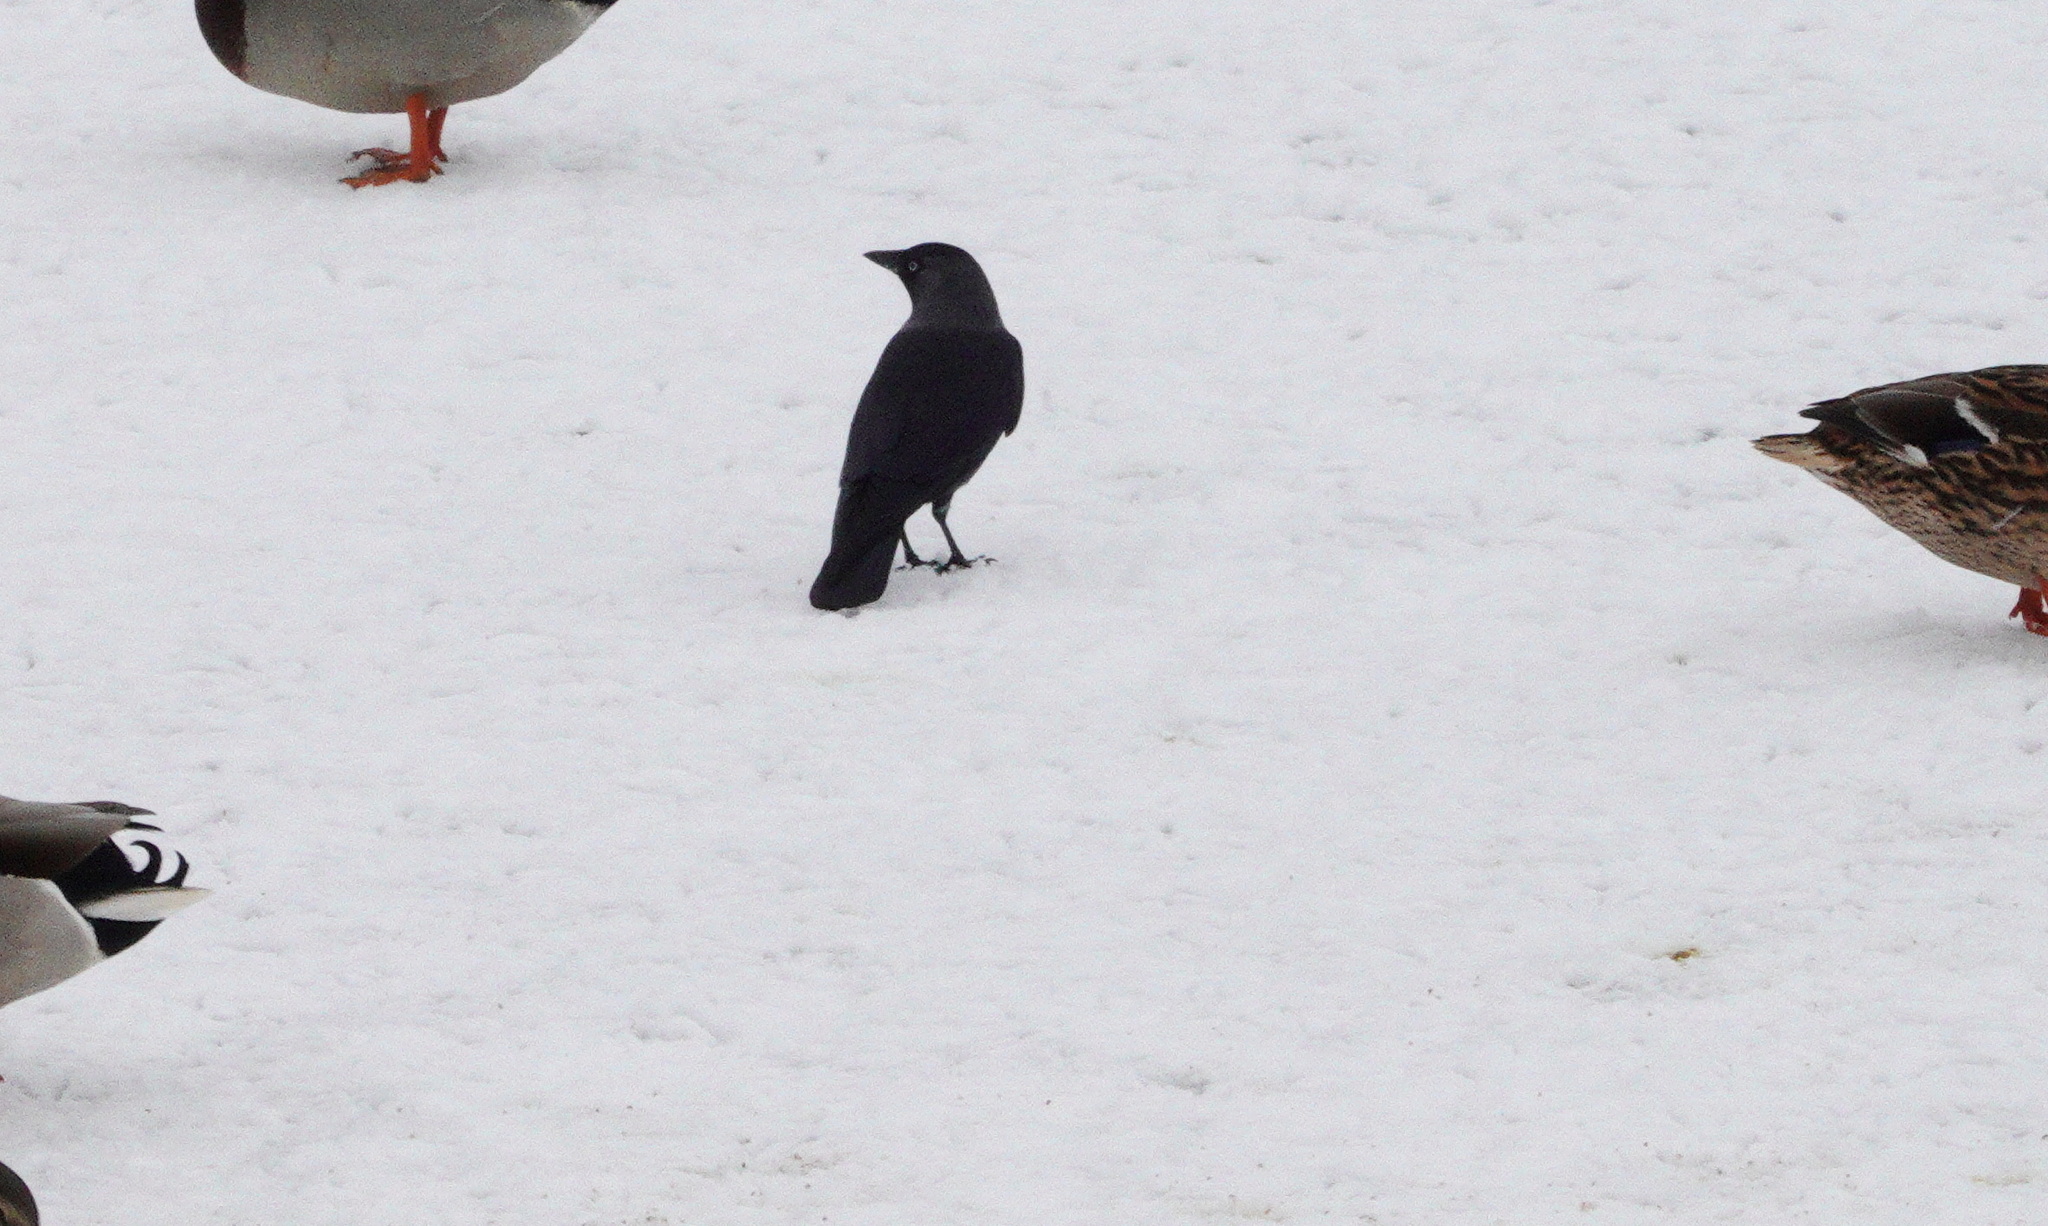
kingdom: Animalia
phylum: Chordata
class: Aves
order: Passeriformes
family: Corvidae
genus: Coloeus
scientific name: Coloeus monedula
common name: Western jackdaw
